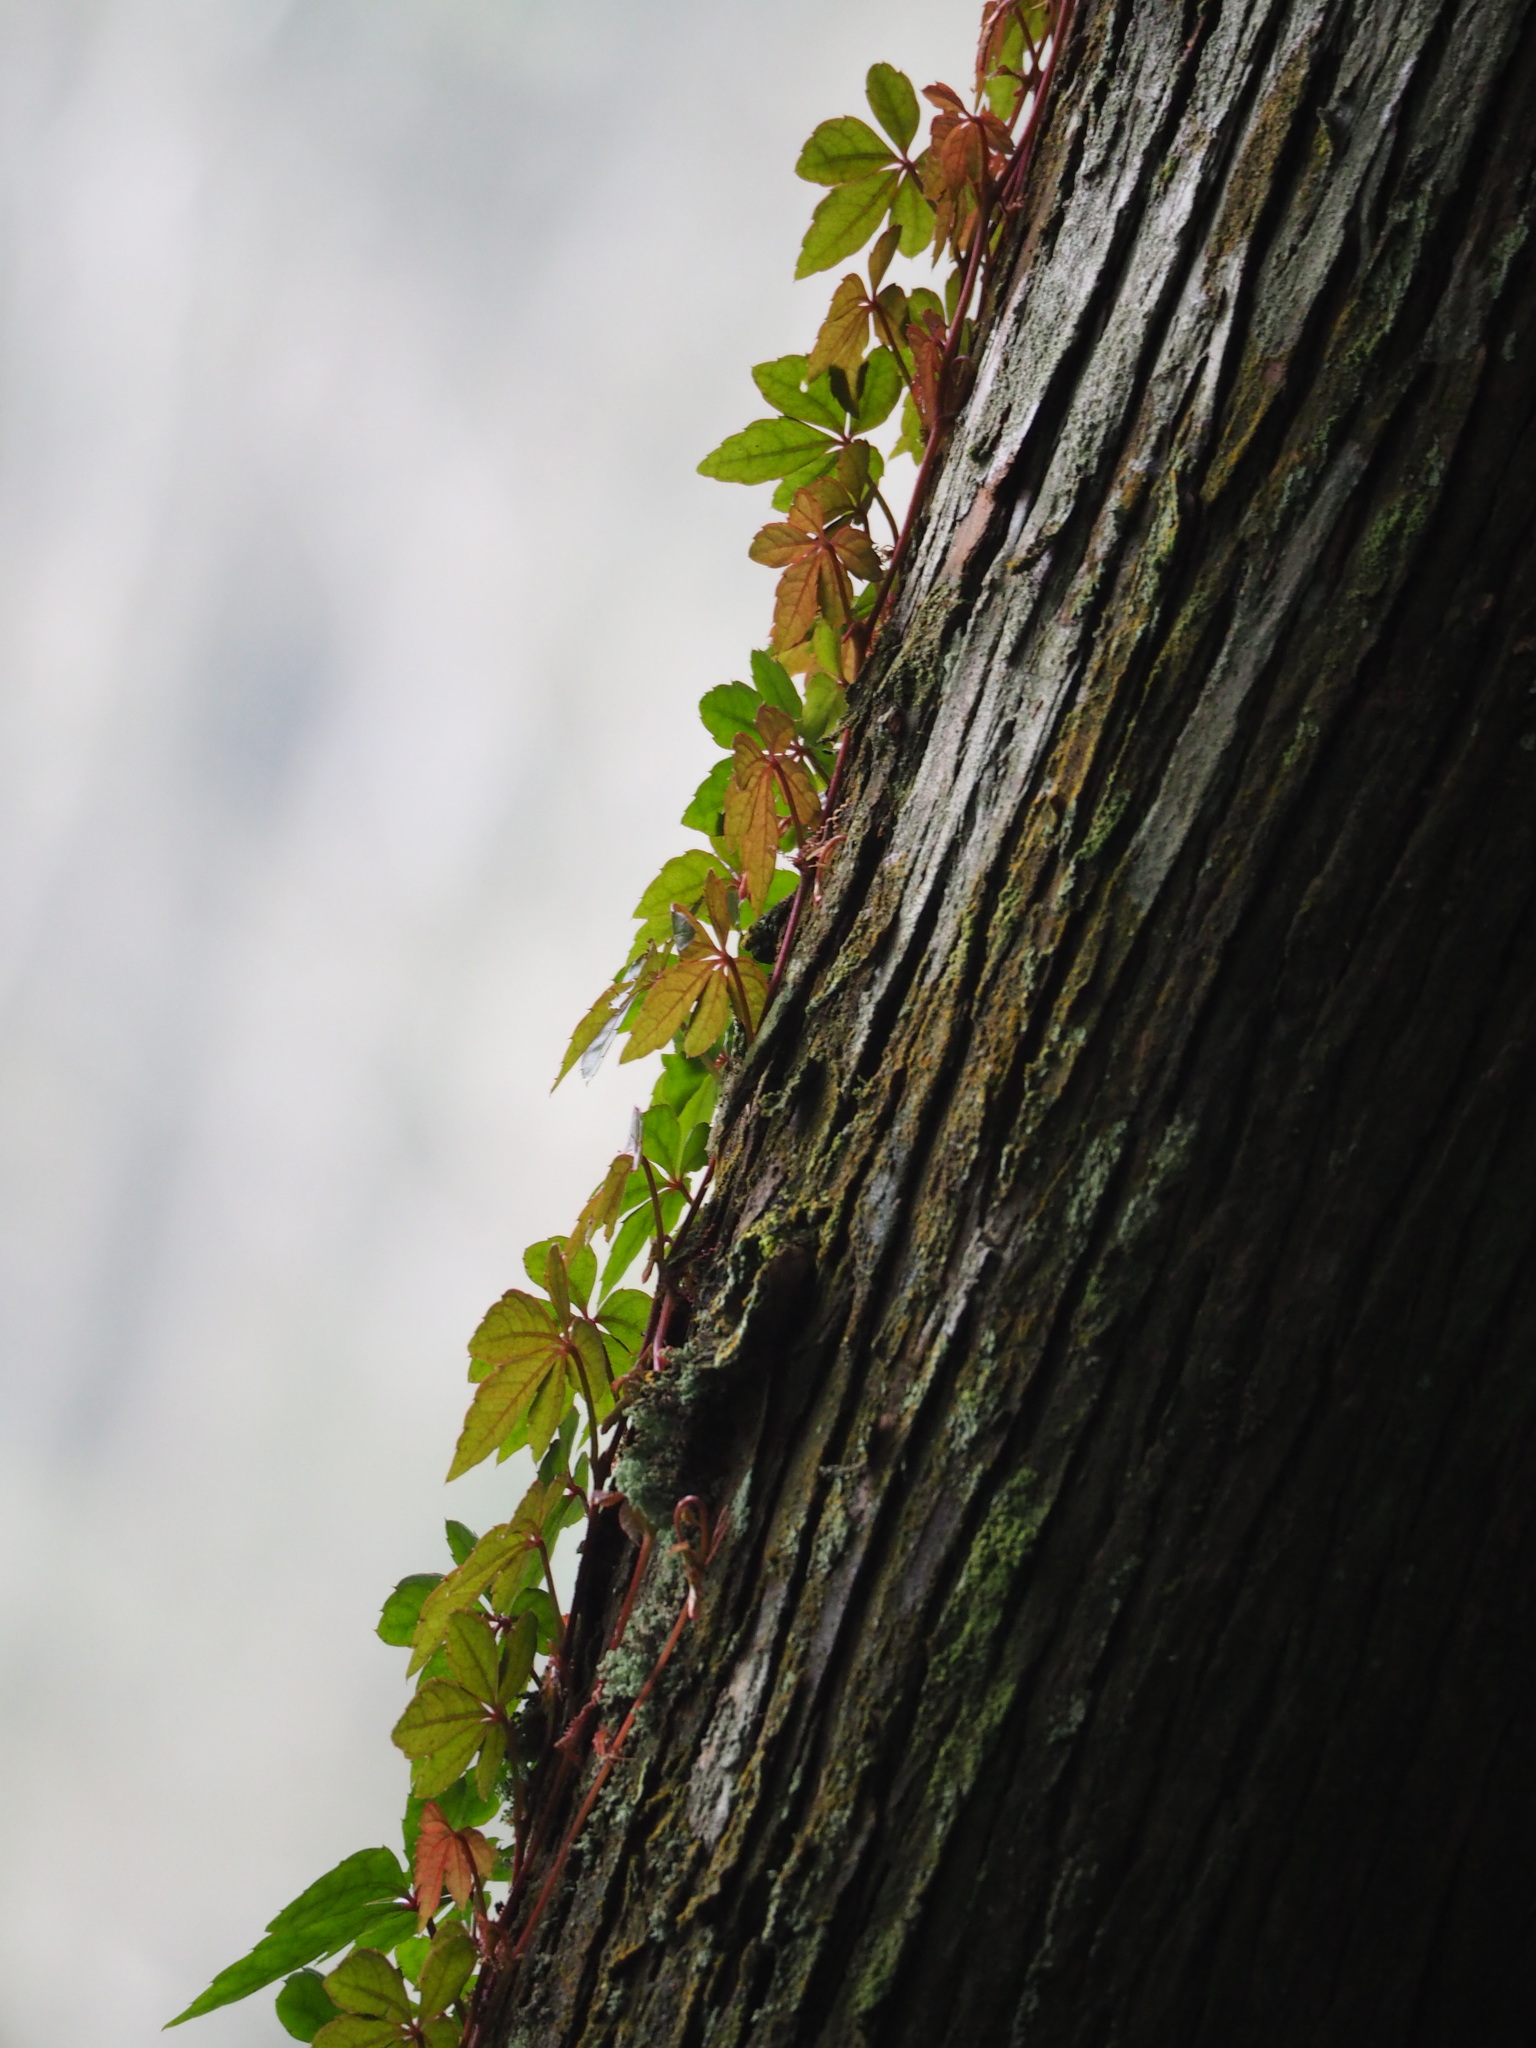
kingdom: Plantae
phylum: Tracheophyta
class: Magnoliopsida
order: Vitales
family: Vitaceae
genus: Tetrastigma
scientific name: Tetrastigma obtectum
